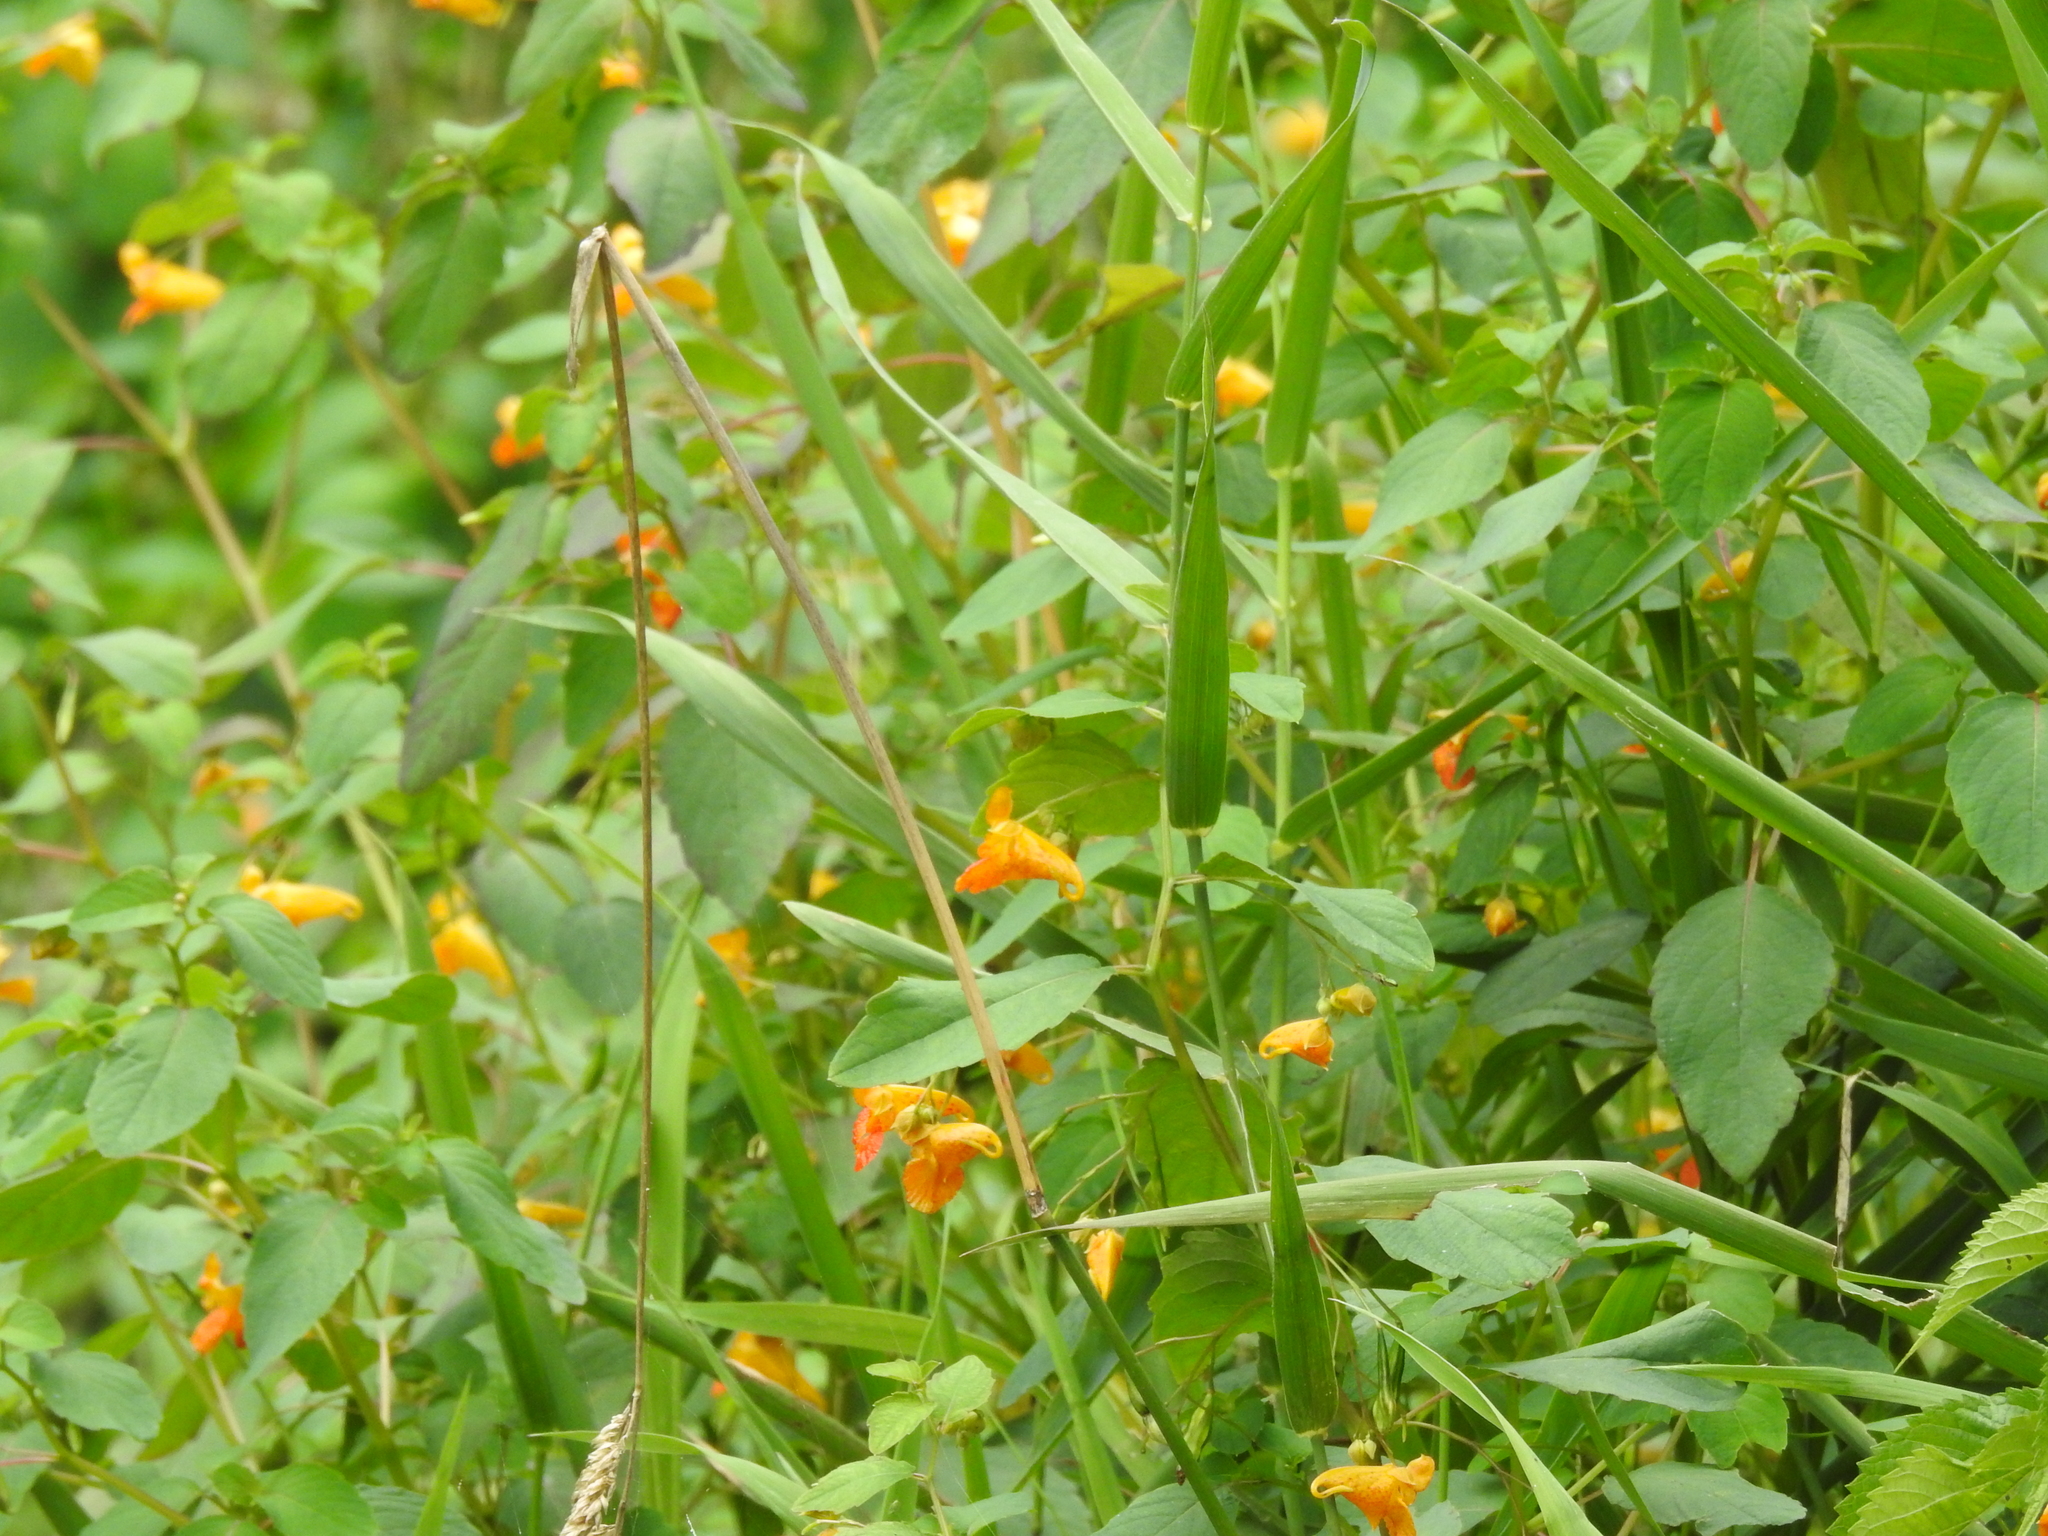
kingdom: Plantae
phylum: Tracheophyta
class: Magnoliopsida
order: Ericales
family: Balsaminaceae
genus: Impatiens
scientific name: Impatiens capensis
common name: Orange balsam
